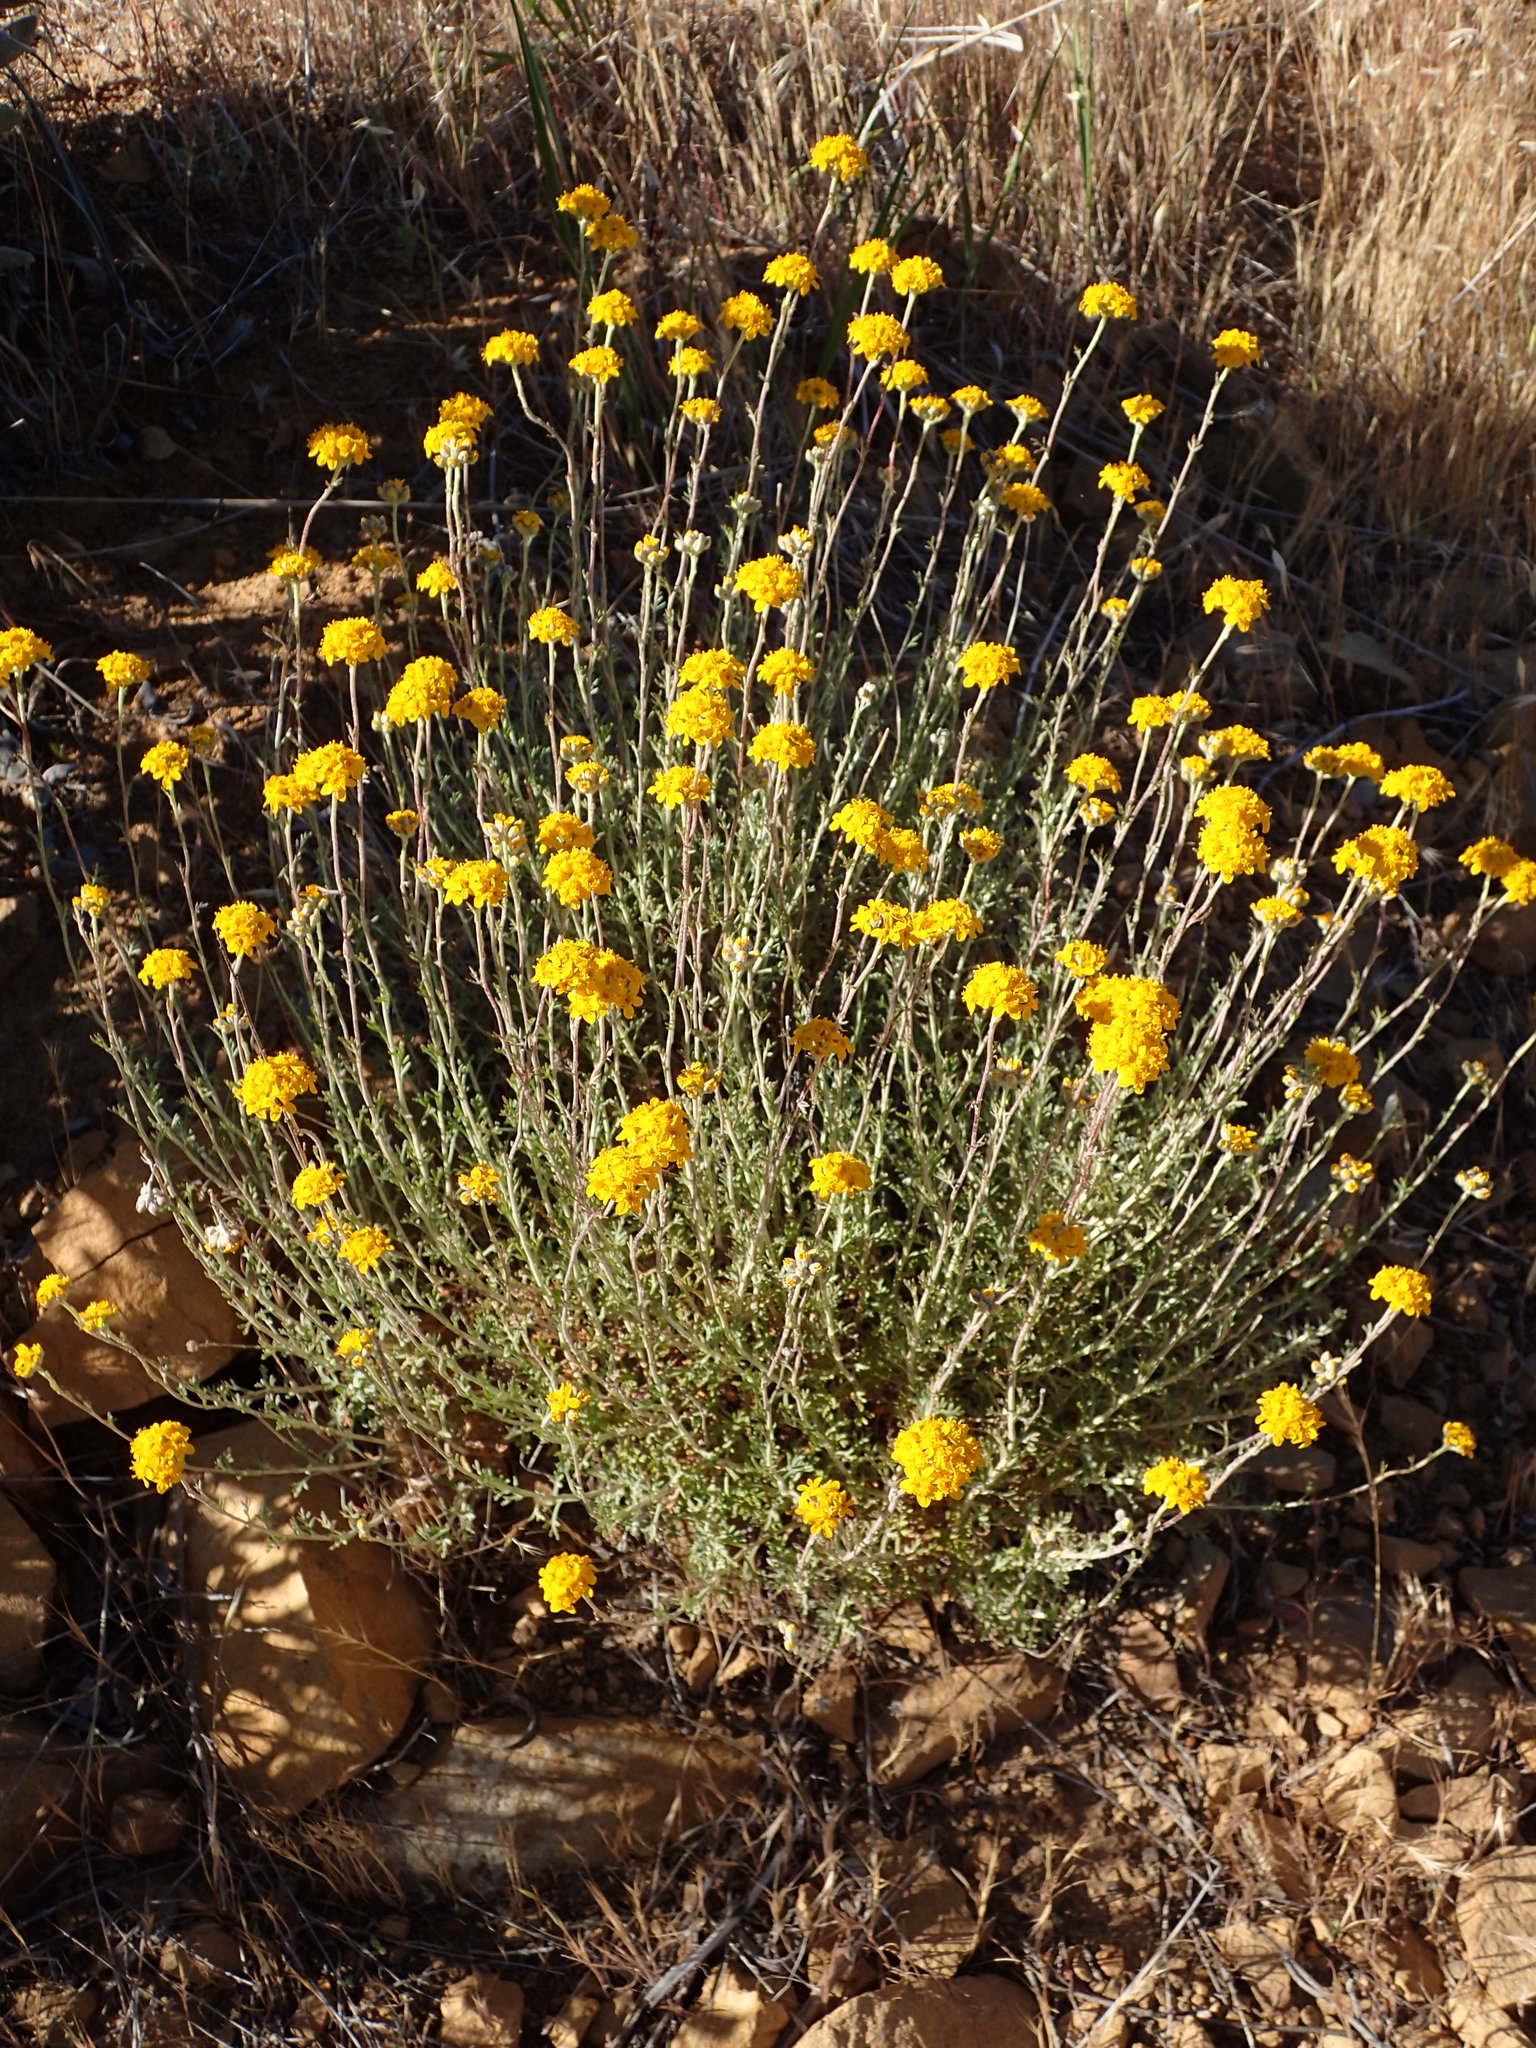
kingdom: Plantae
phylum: Tracheophyta
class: Magnoliopsida
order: Asterales
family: Asteraceae
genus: Eriophyllum
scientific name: Eriophyllum confertiflorum
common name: Golden-yarrow
